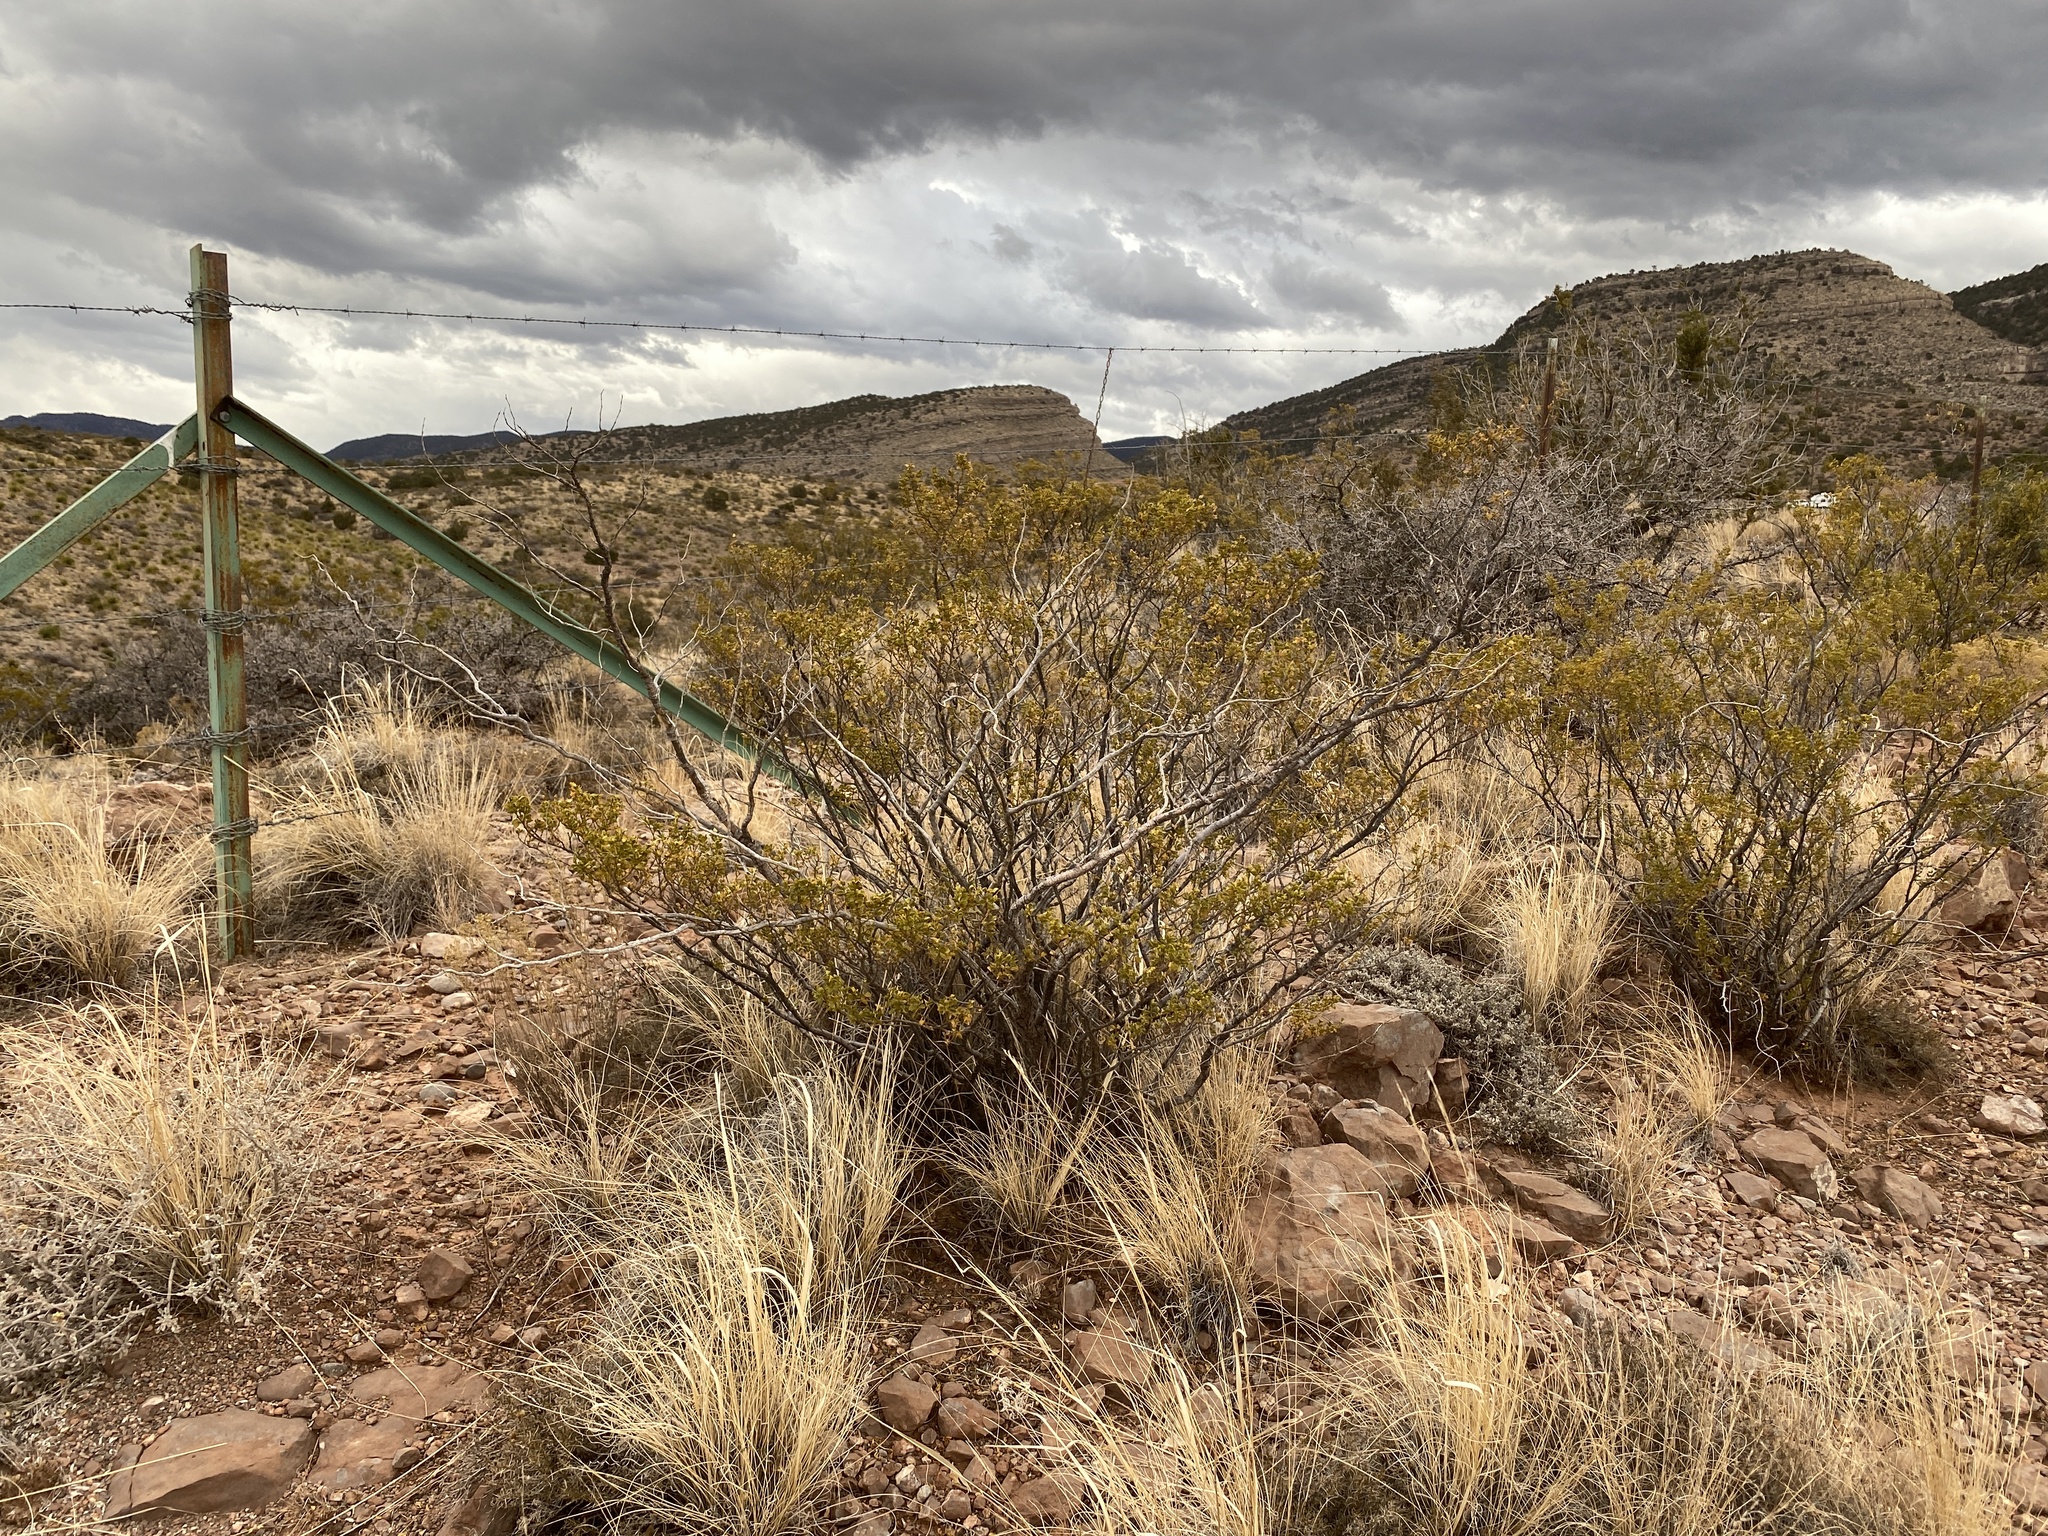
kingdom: Plantae
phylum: Tracheophyta
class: Magnoliopsida
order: Zygophyllales
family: Zygophyllaceae
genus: Larrea
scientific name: Larrea tridentata
